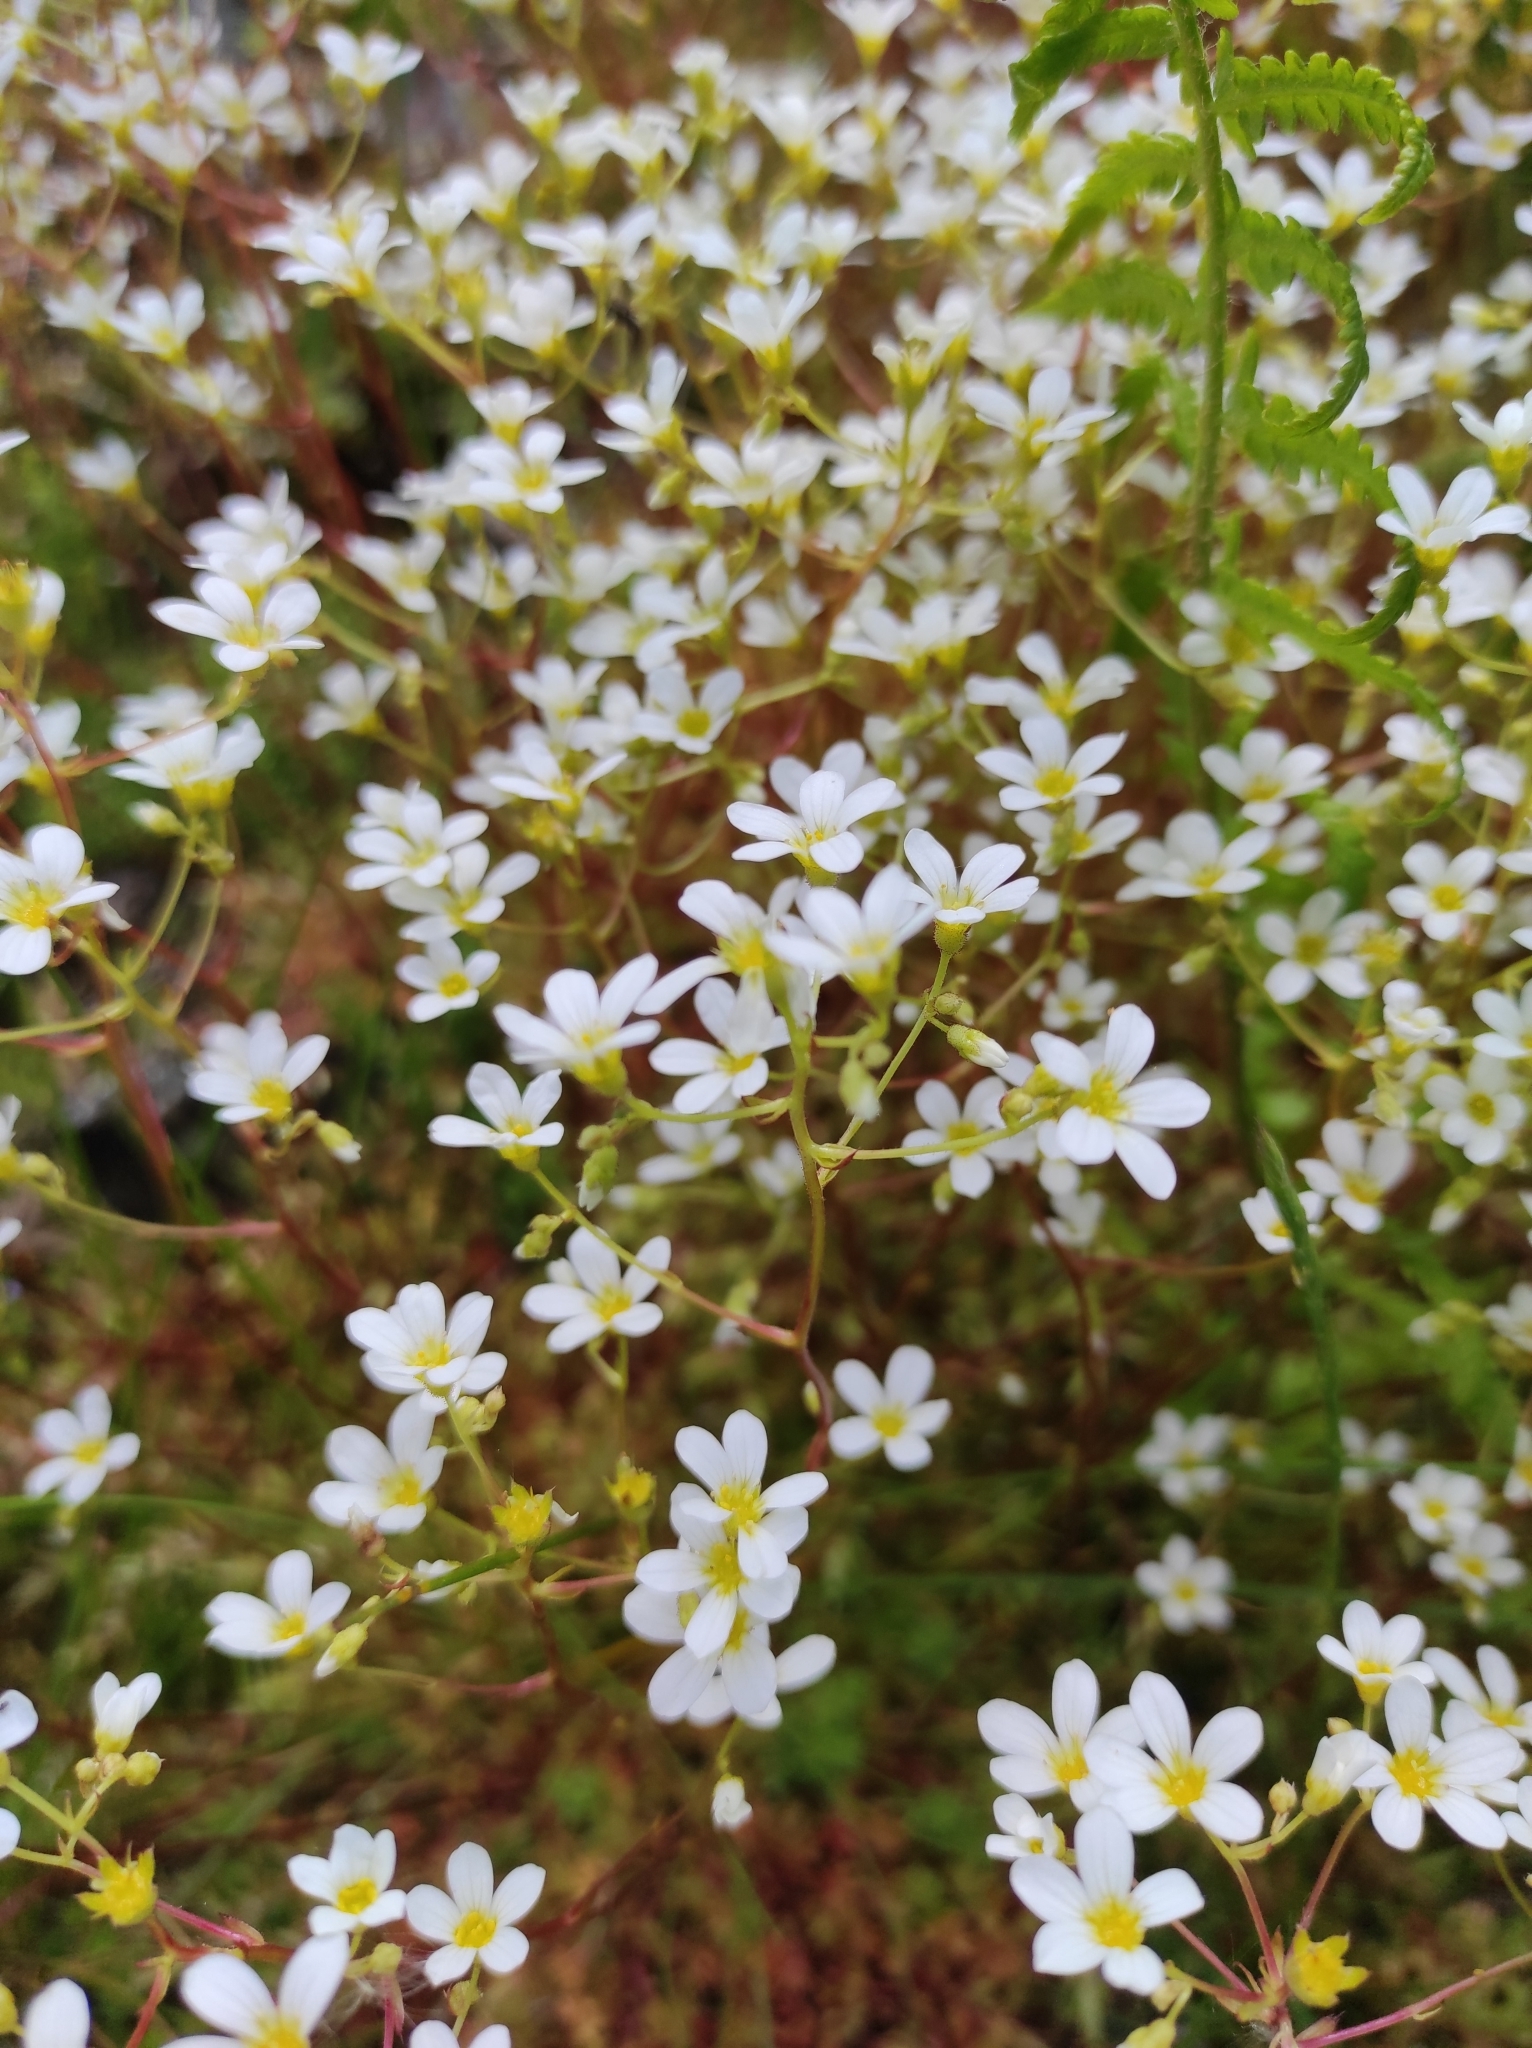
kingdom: Plantae
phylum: Tracheophyta
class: Magnoliopsida
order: Saxifragales
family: Saxifragaceae
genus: Saxifraga
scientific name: Saxifraga paniculata
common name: Livelong saxifrage
